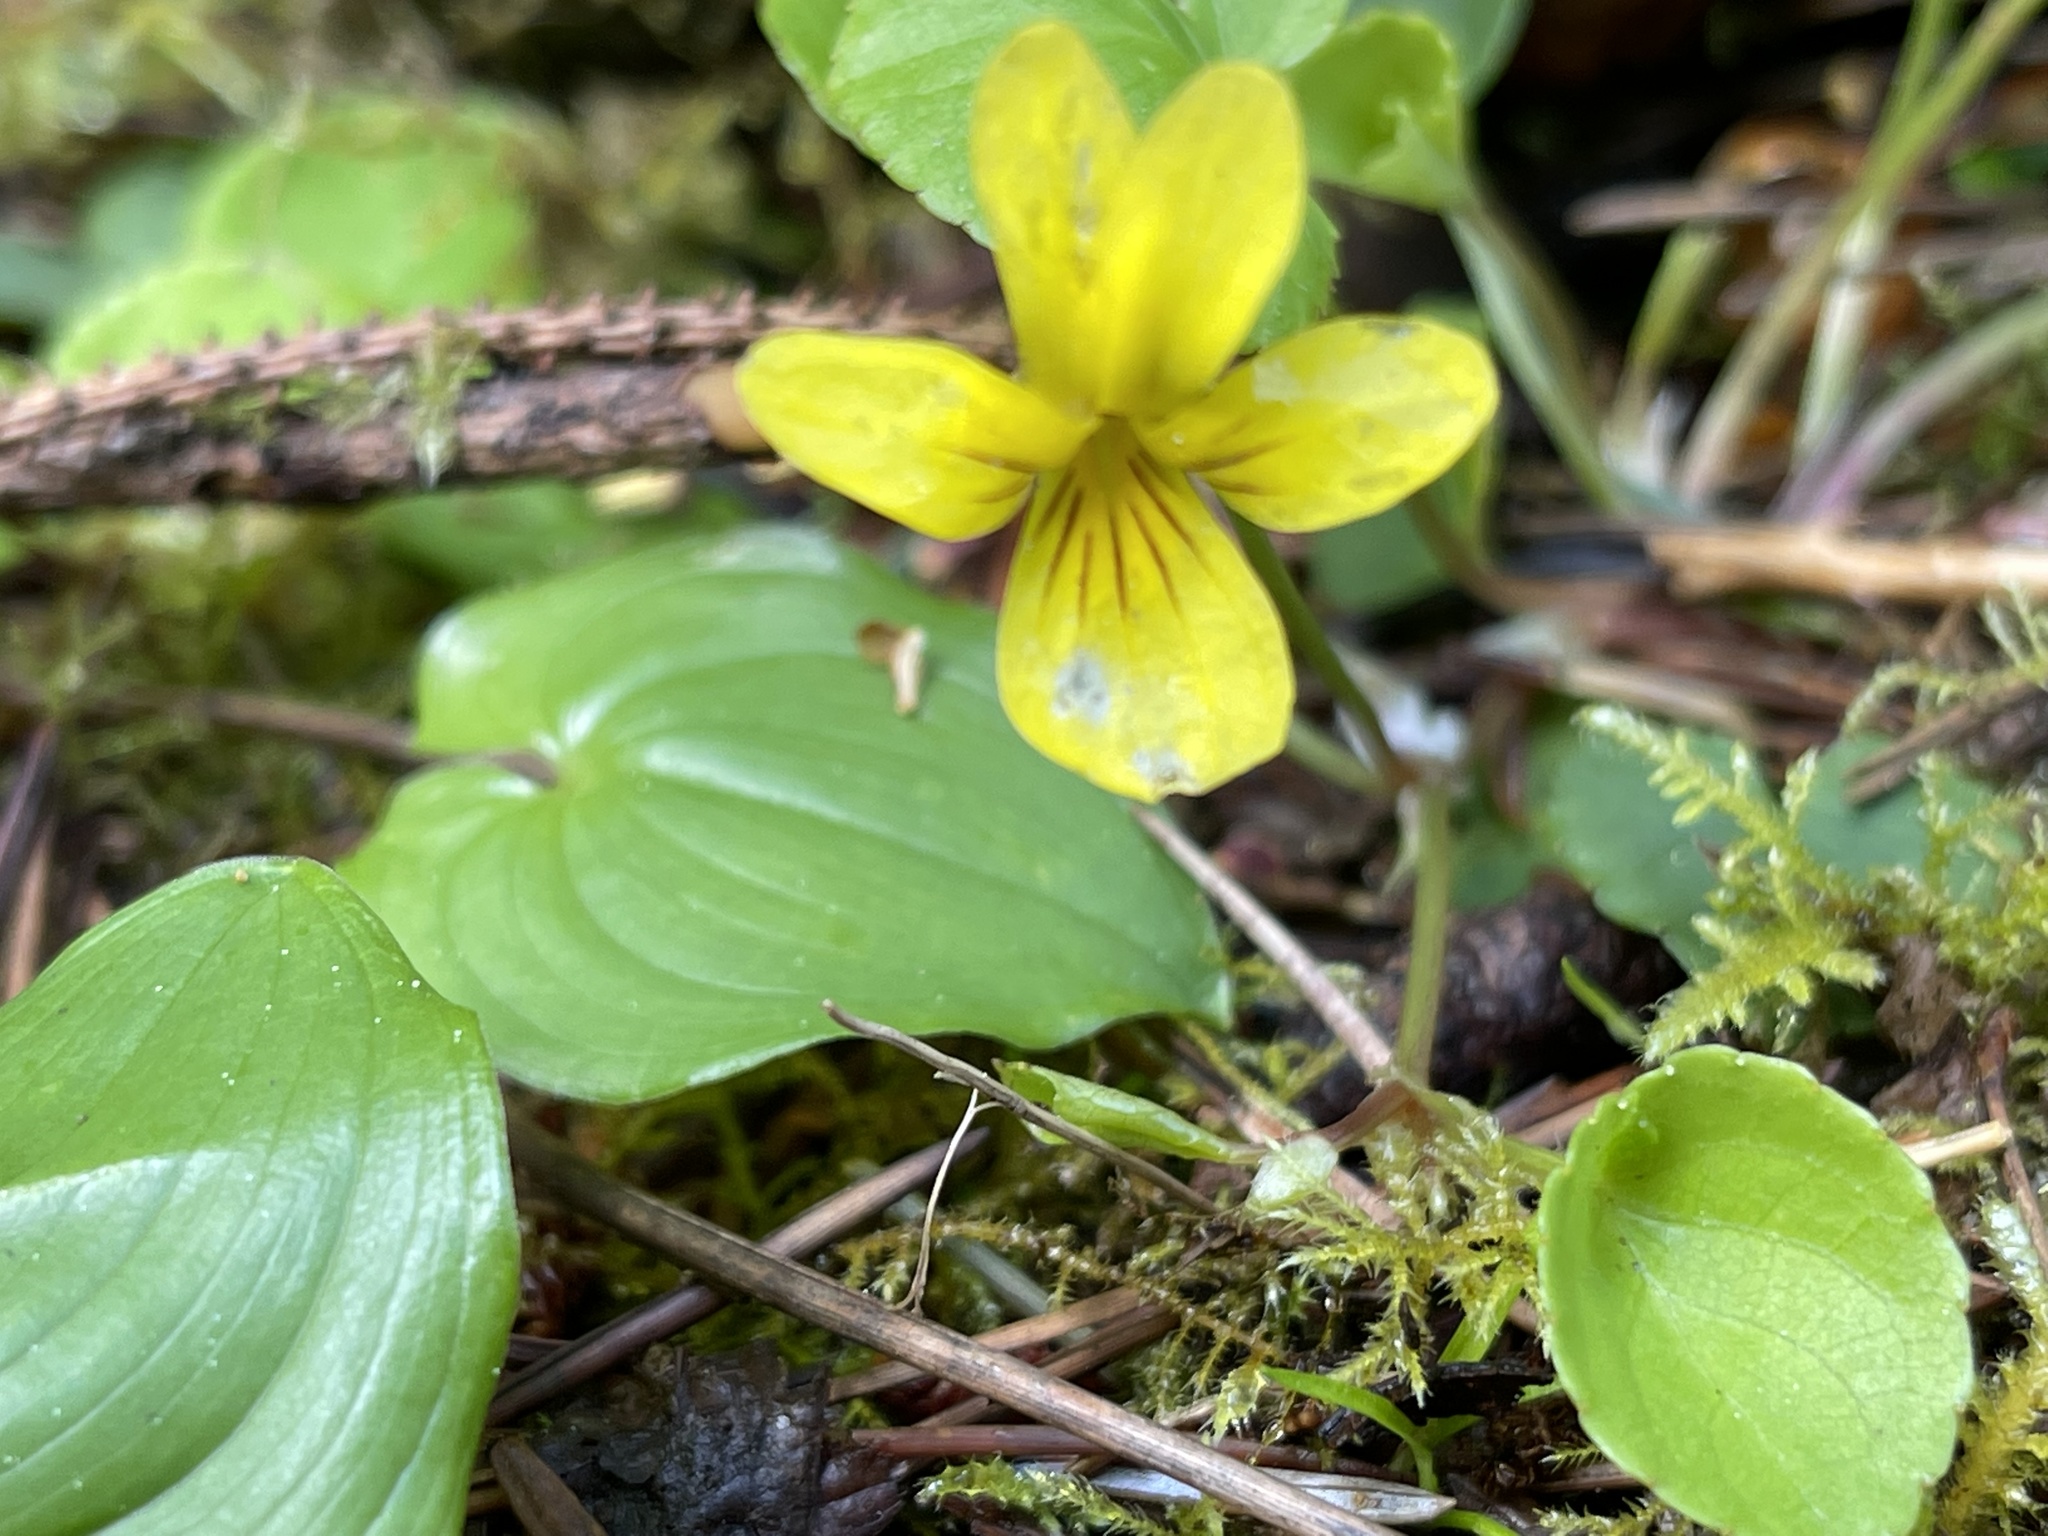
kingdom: Plantae
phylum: Tracheophyta
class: Magnoliopsida
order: Malpighiales
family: Violaceae
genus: Viola
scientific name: Viola sempervirens
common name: Evergreen violet
